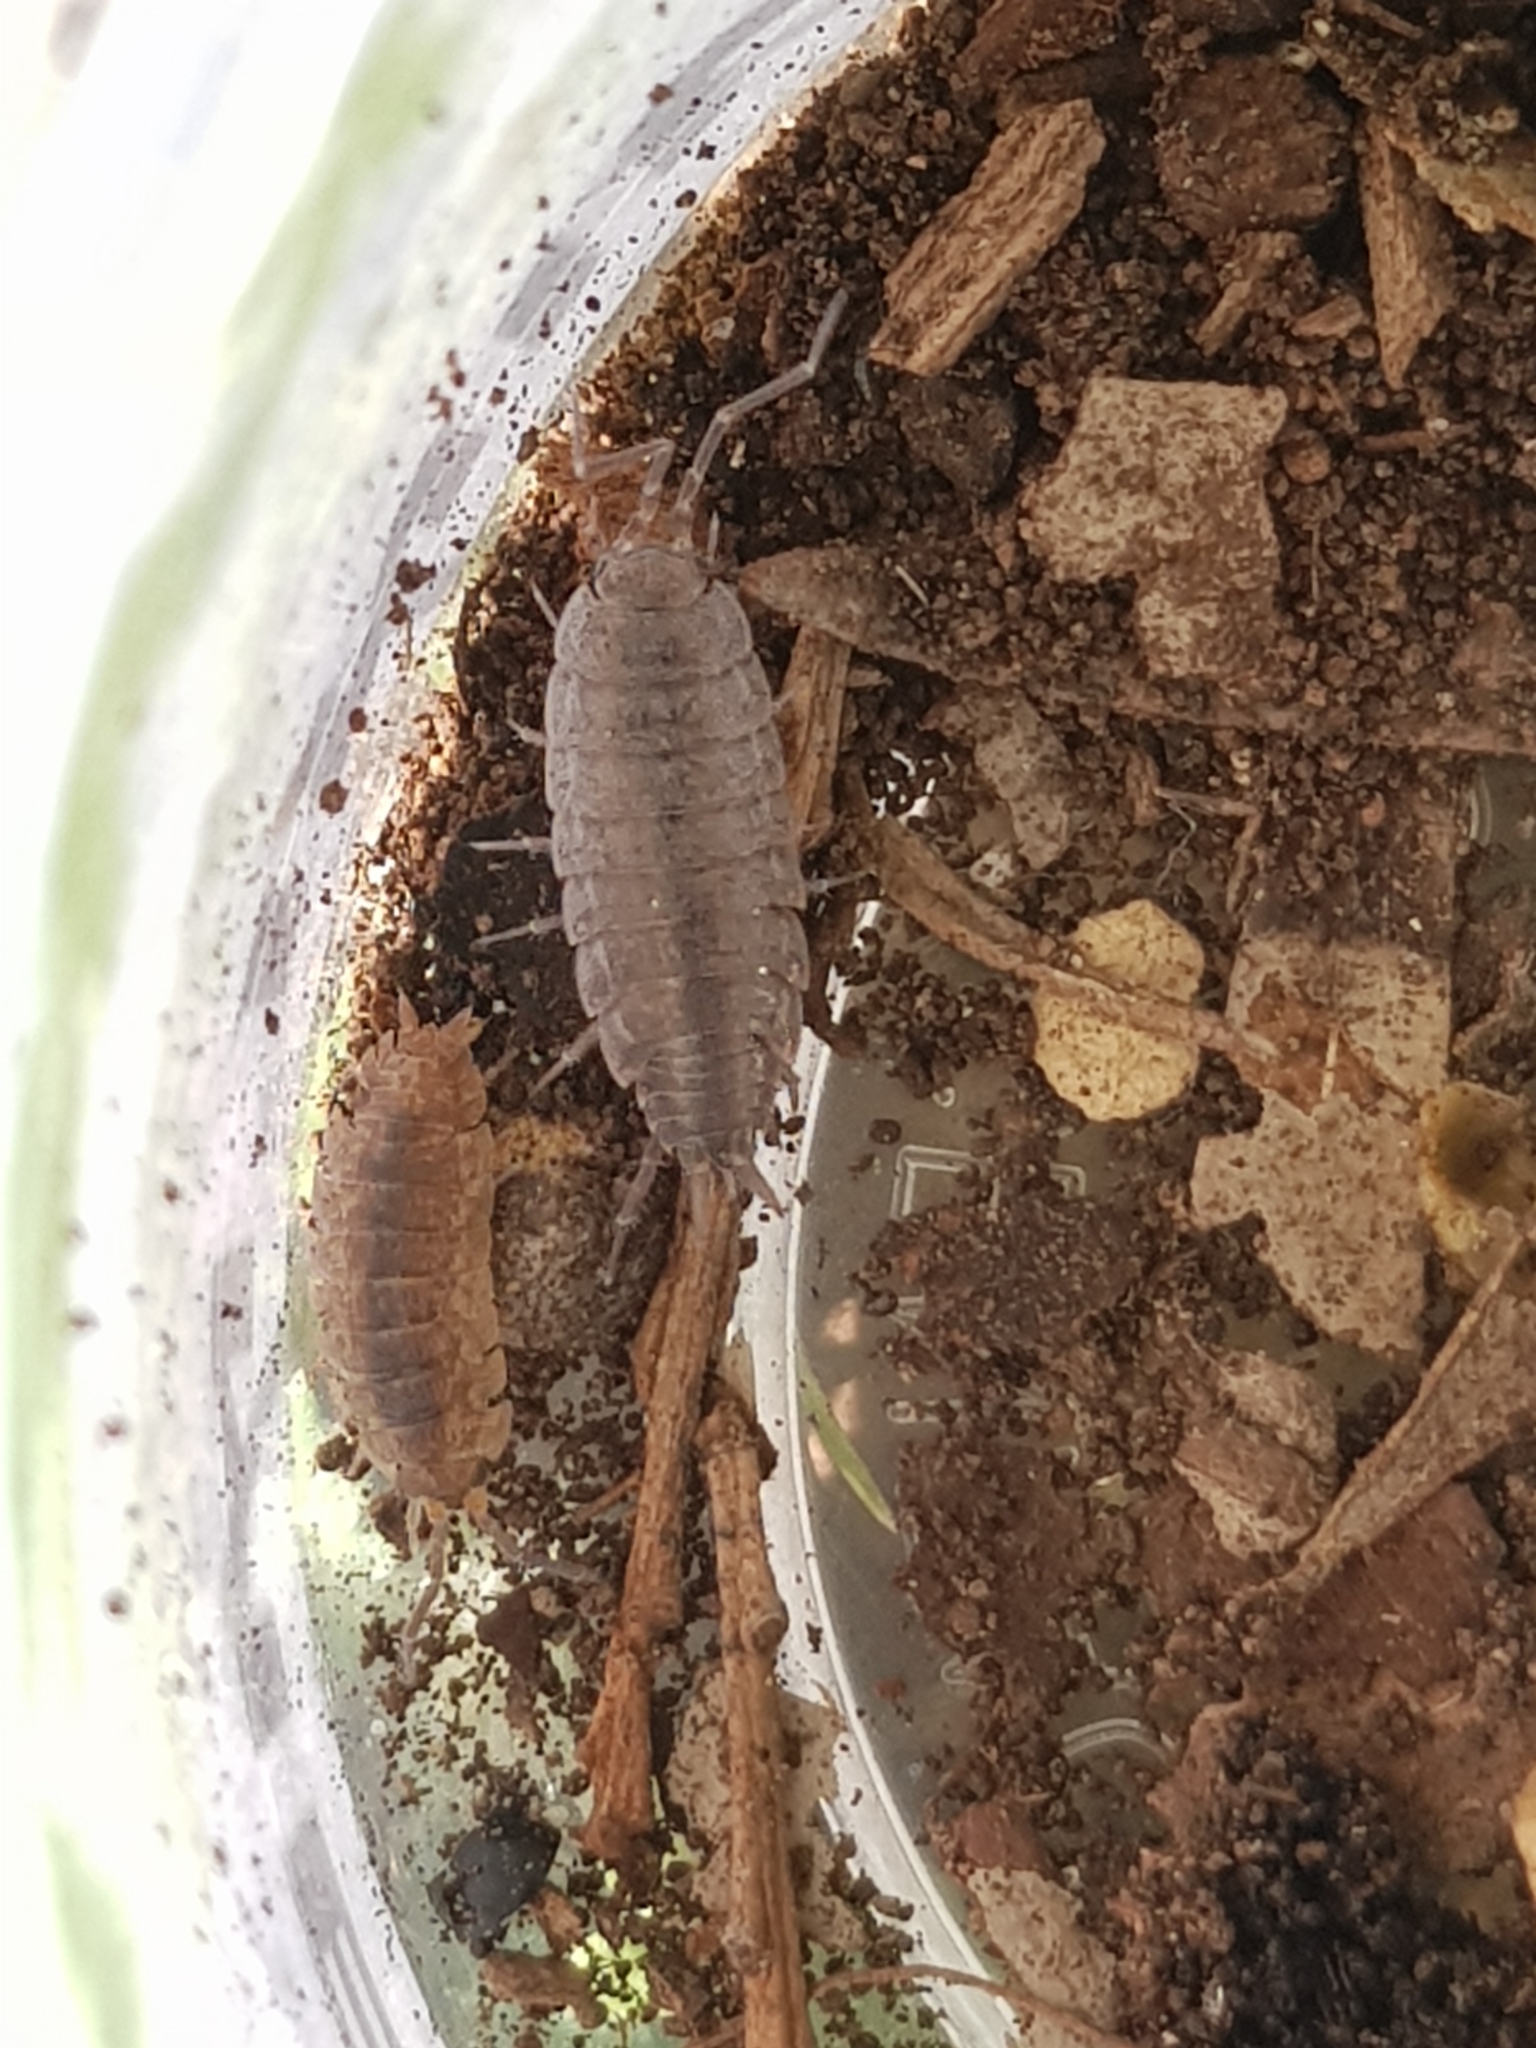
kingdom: Animalia
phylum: Arthropoda
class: Malacostraca
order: Isopoda
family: Porcellionidae
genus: Porcellionides
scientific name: Porcellionides sexfasciatus
